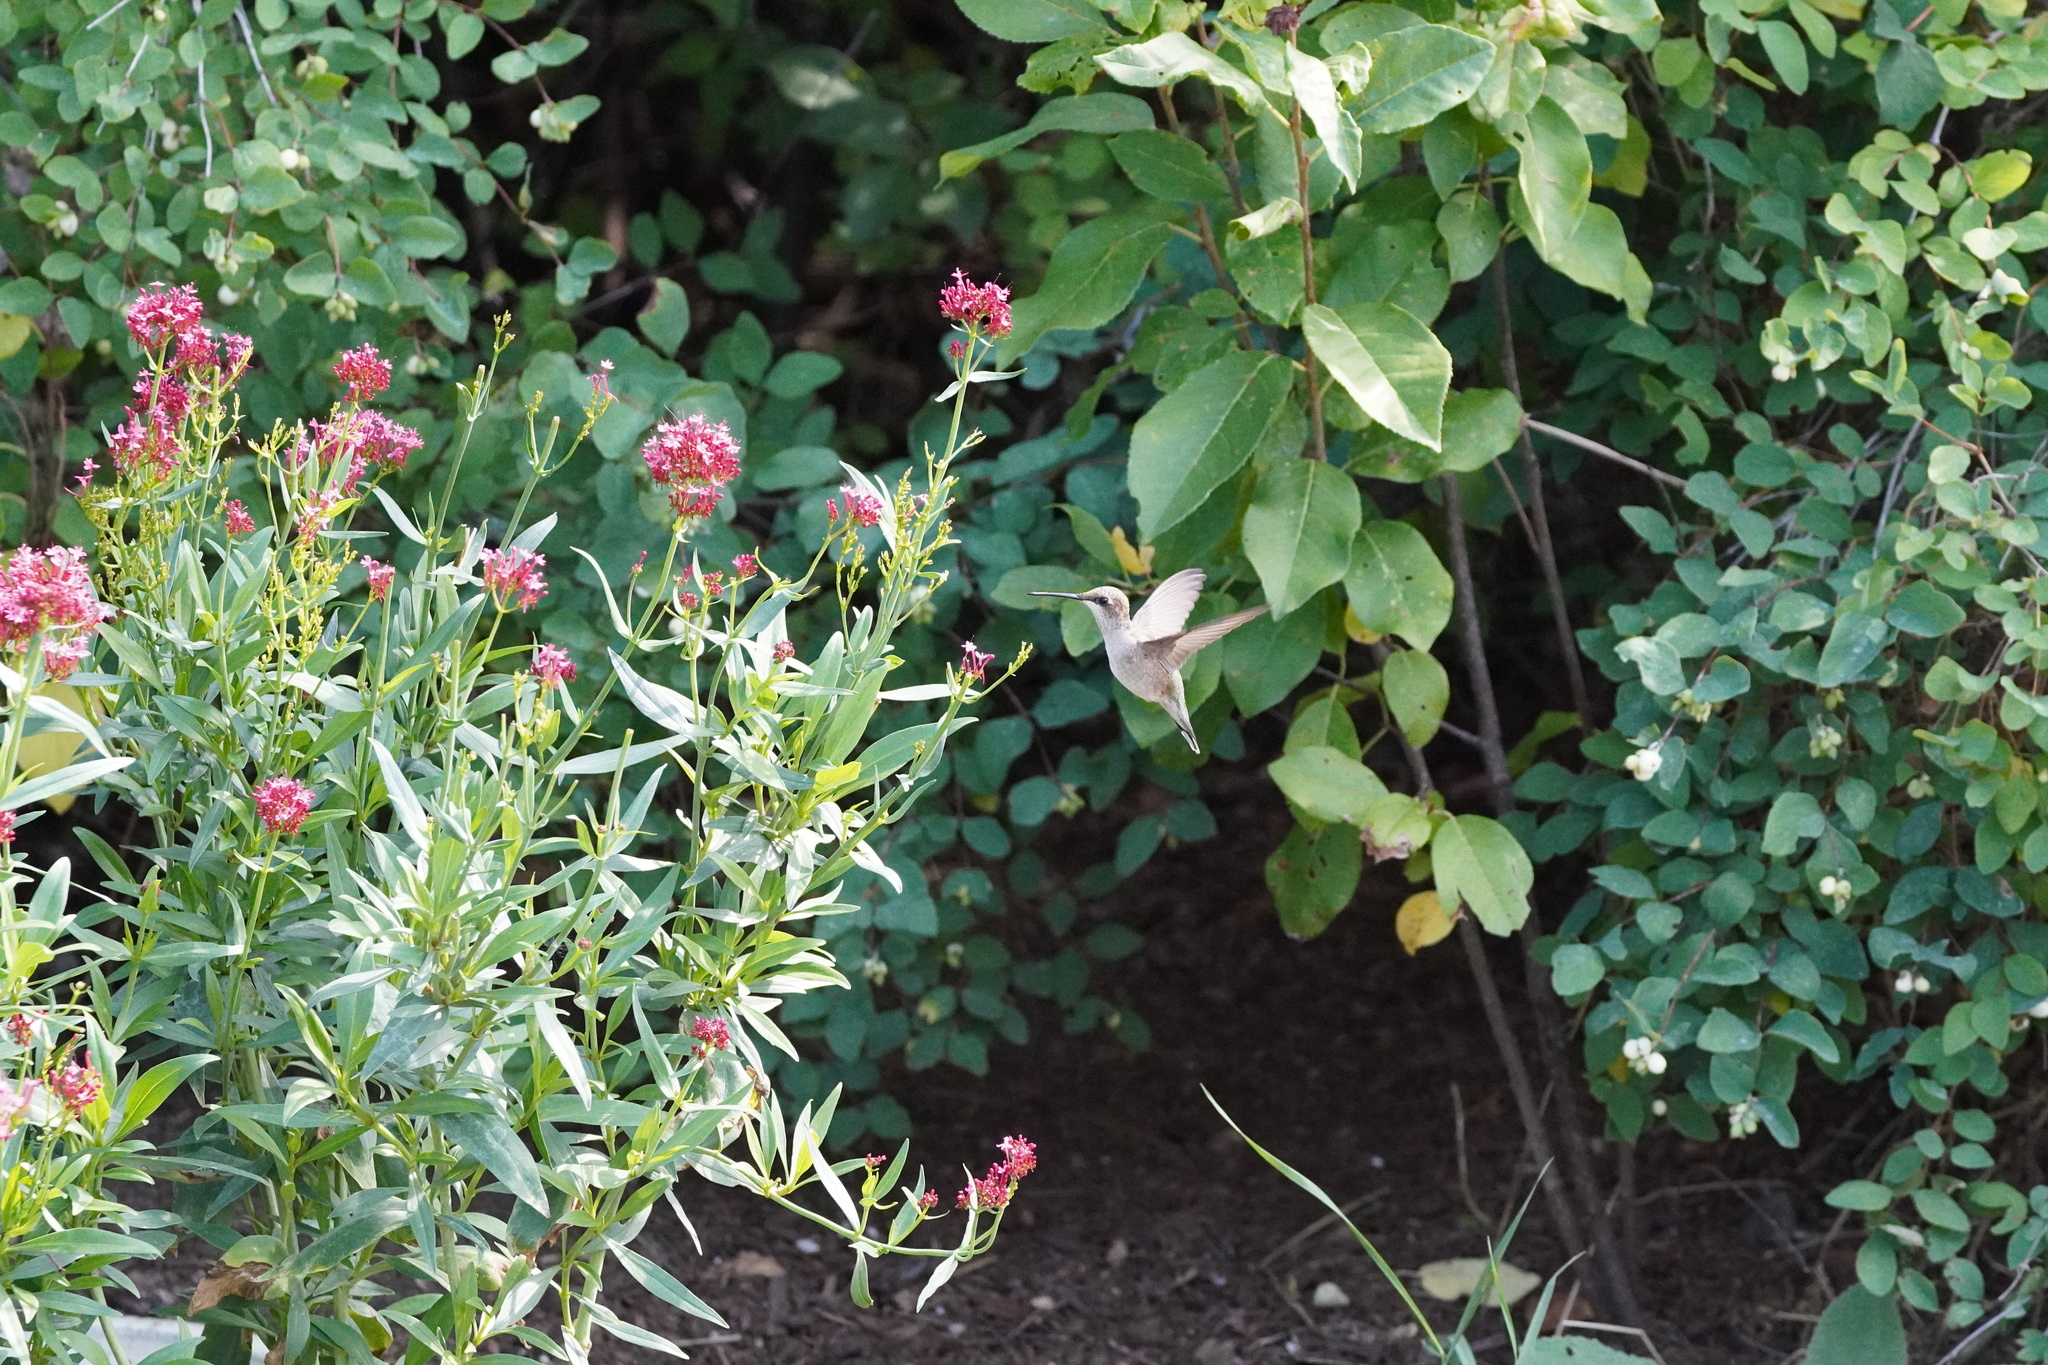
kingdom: Animalia
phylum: Chordata
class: Aves
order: Apodiformes
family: Trochilidae
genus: Archilochus
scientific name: Archilochus alexandri
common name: Black-chinned hummingbird
